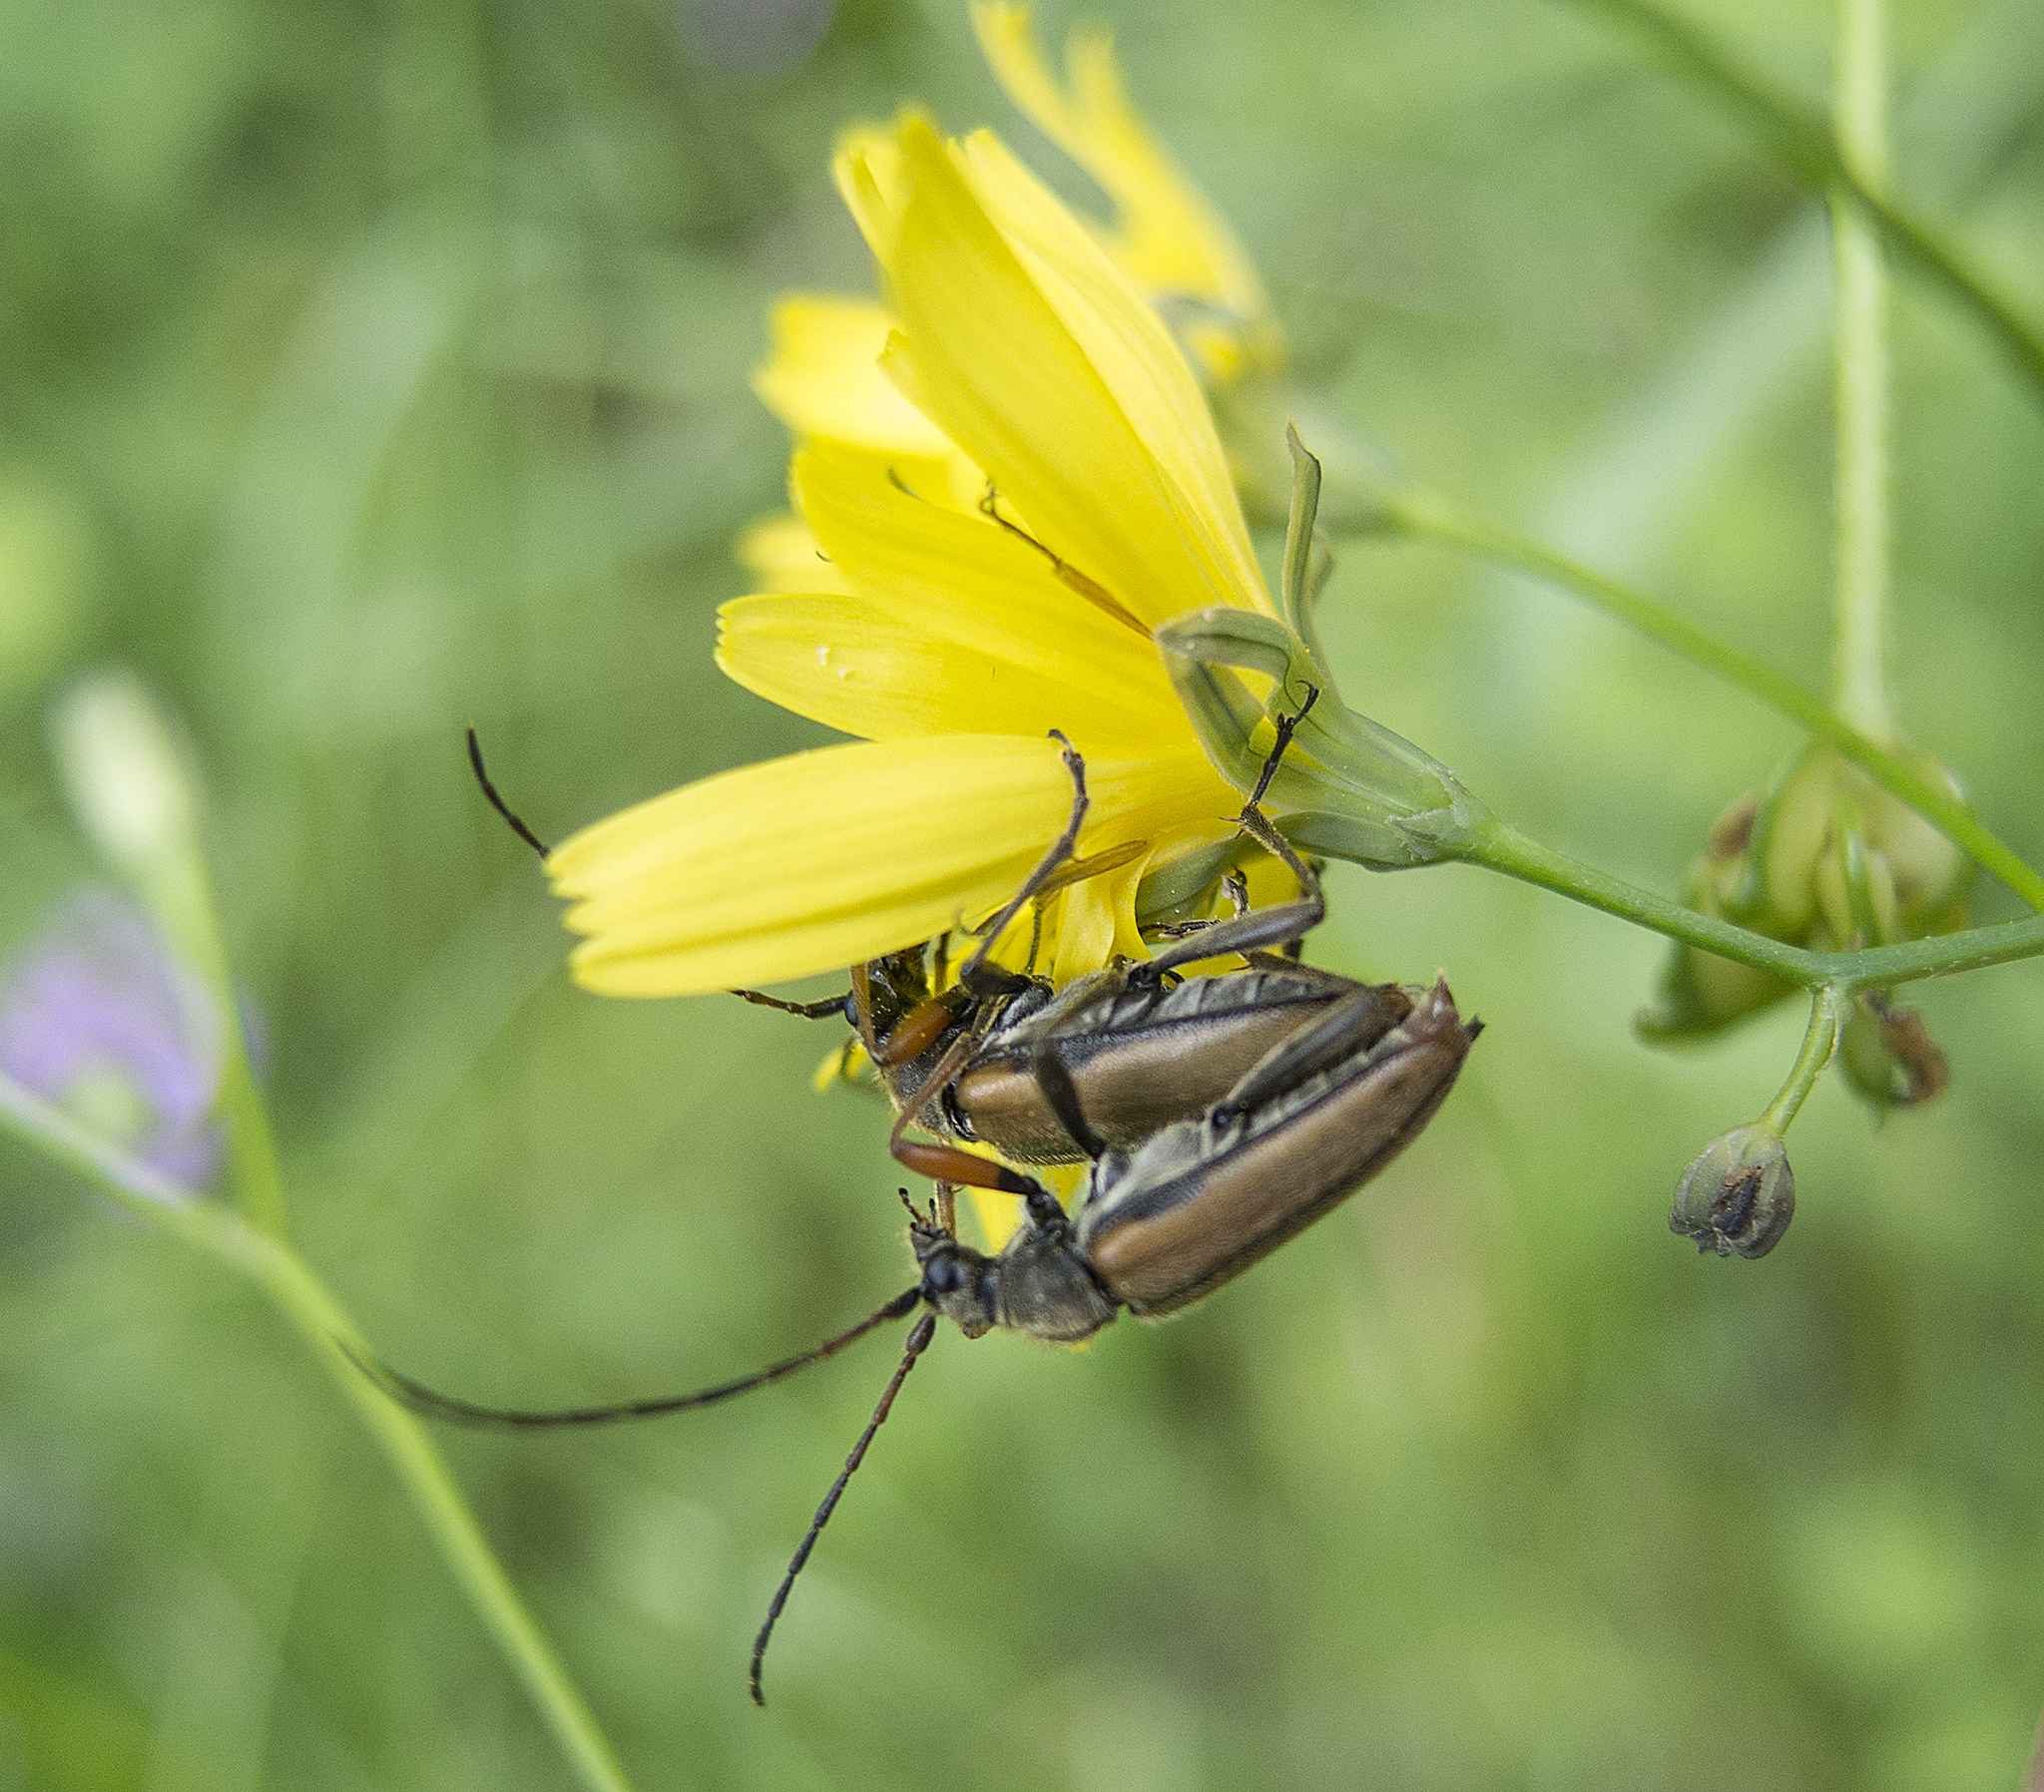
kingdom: Animalia
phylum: Arthropoda
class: Insecta
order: Coleoptera
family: Cerambycidae
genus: Cortodera
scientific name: Cortodera flavimana
